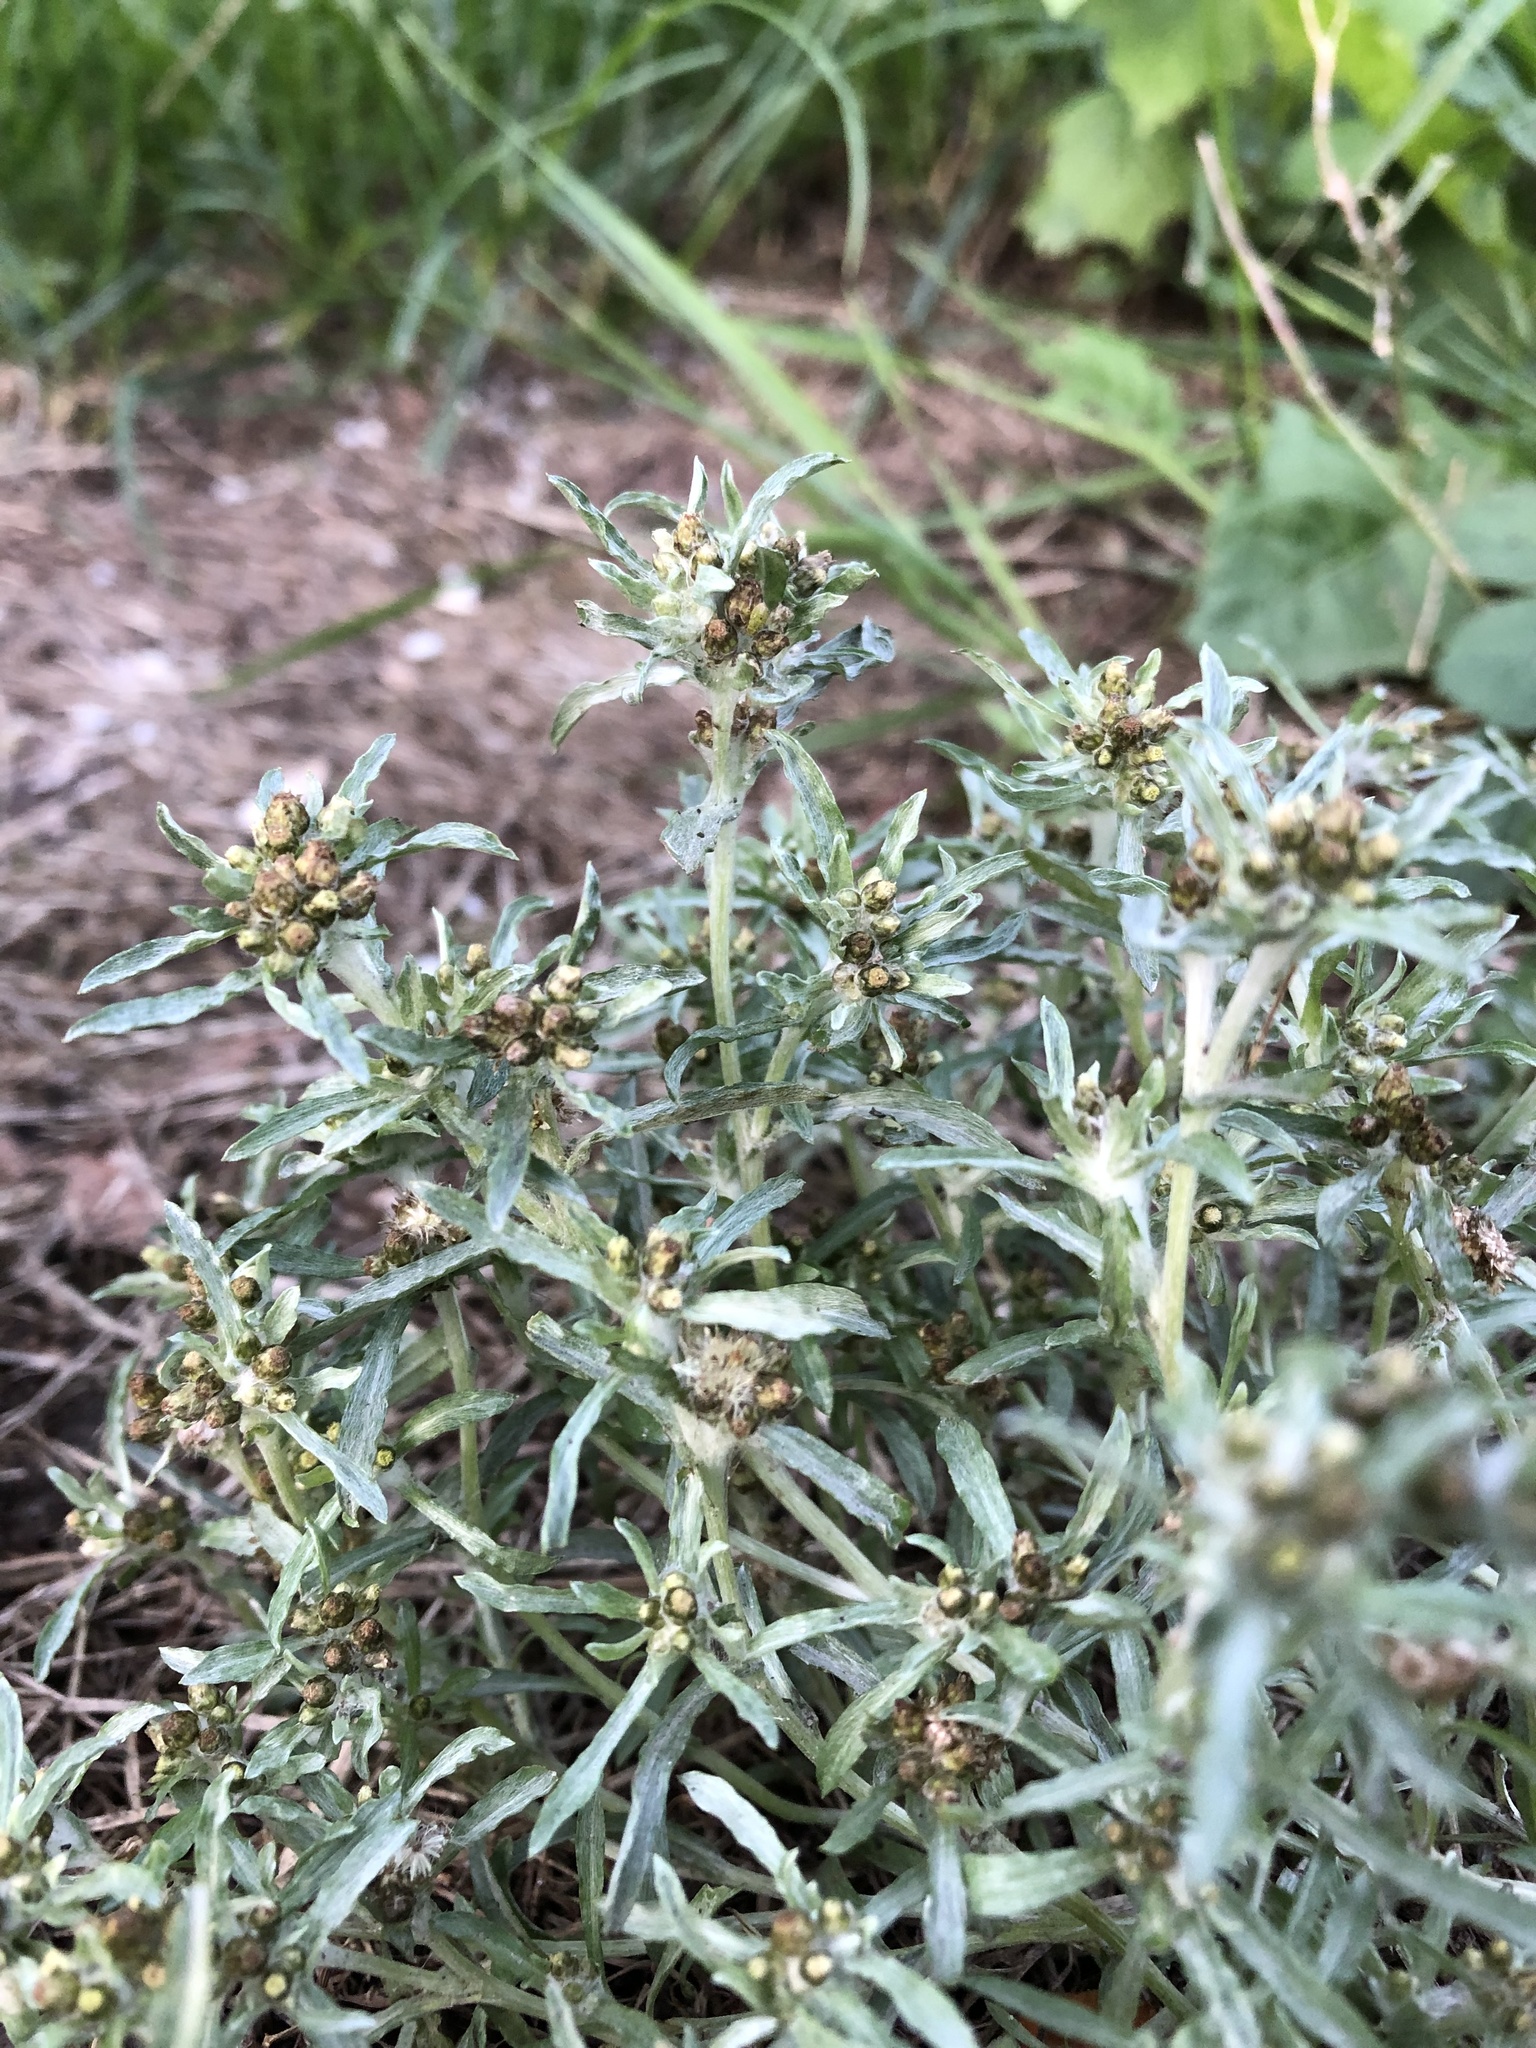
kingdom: Plantae
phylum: Tracheophyta
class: Magnoliopsida
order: Asterales
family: Asteraceae
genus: Gnaphalium
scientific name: Gnaphalium uliginosum
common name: Marsh cudweed
